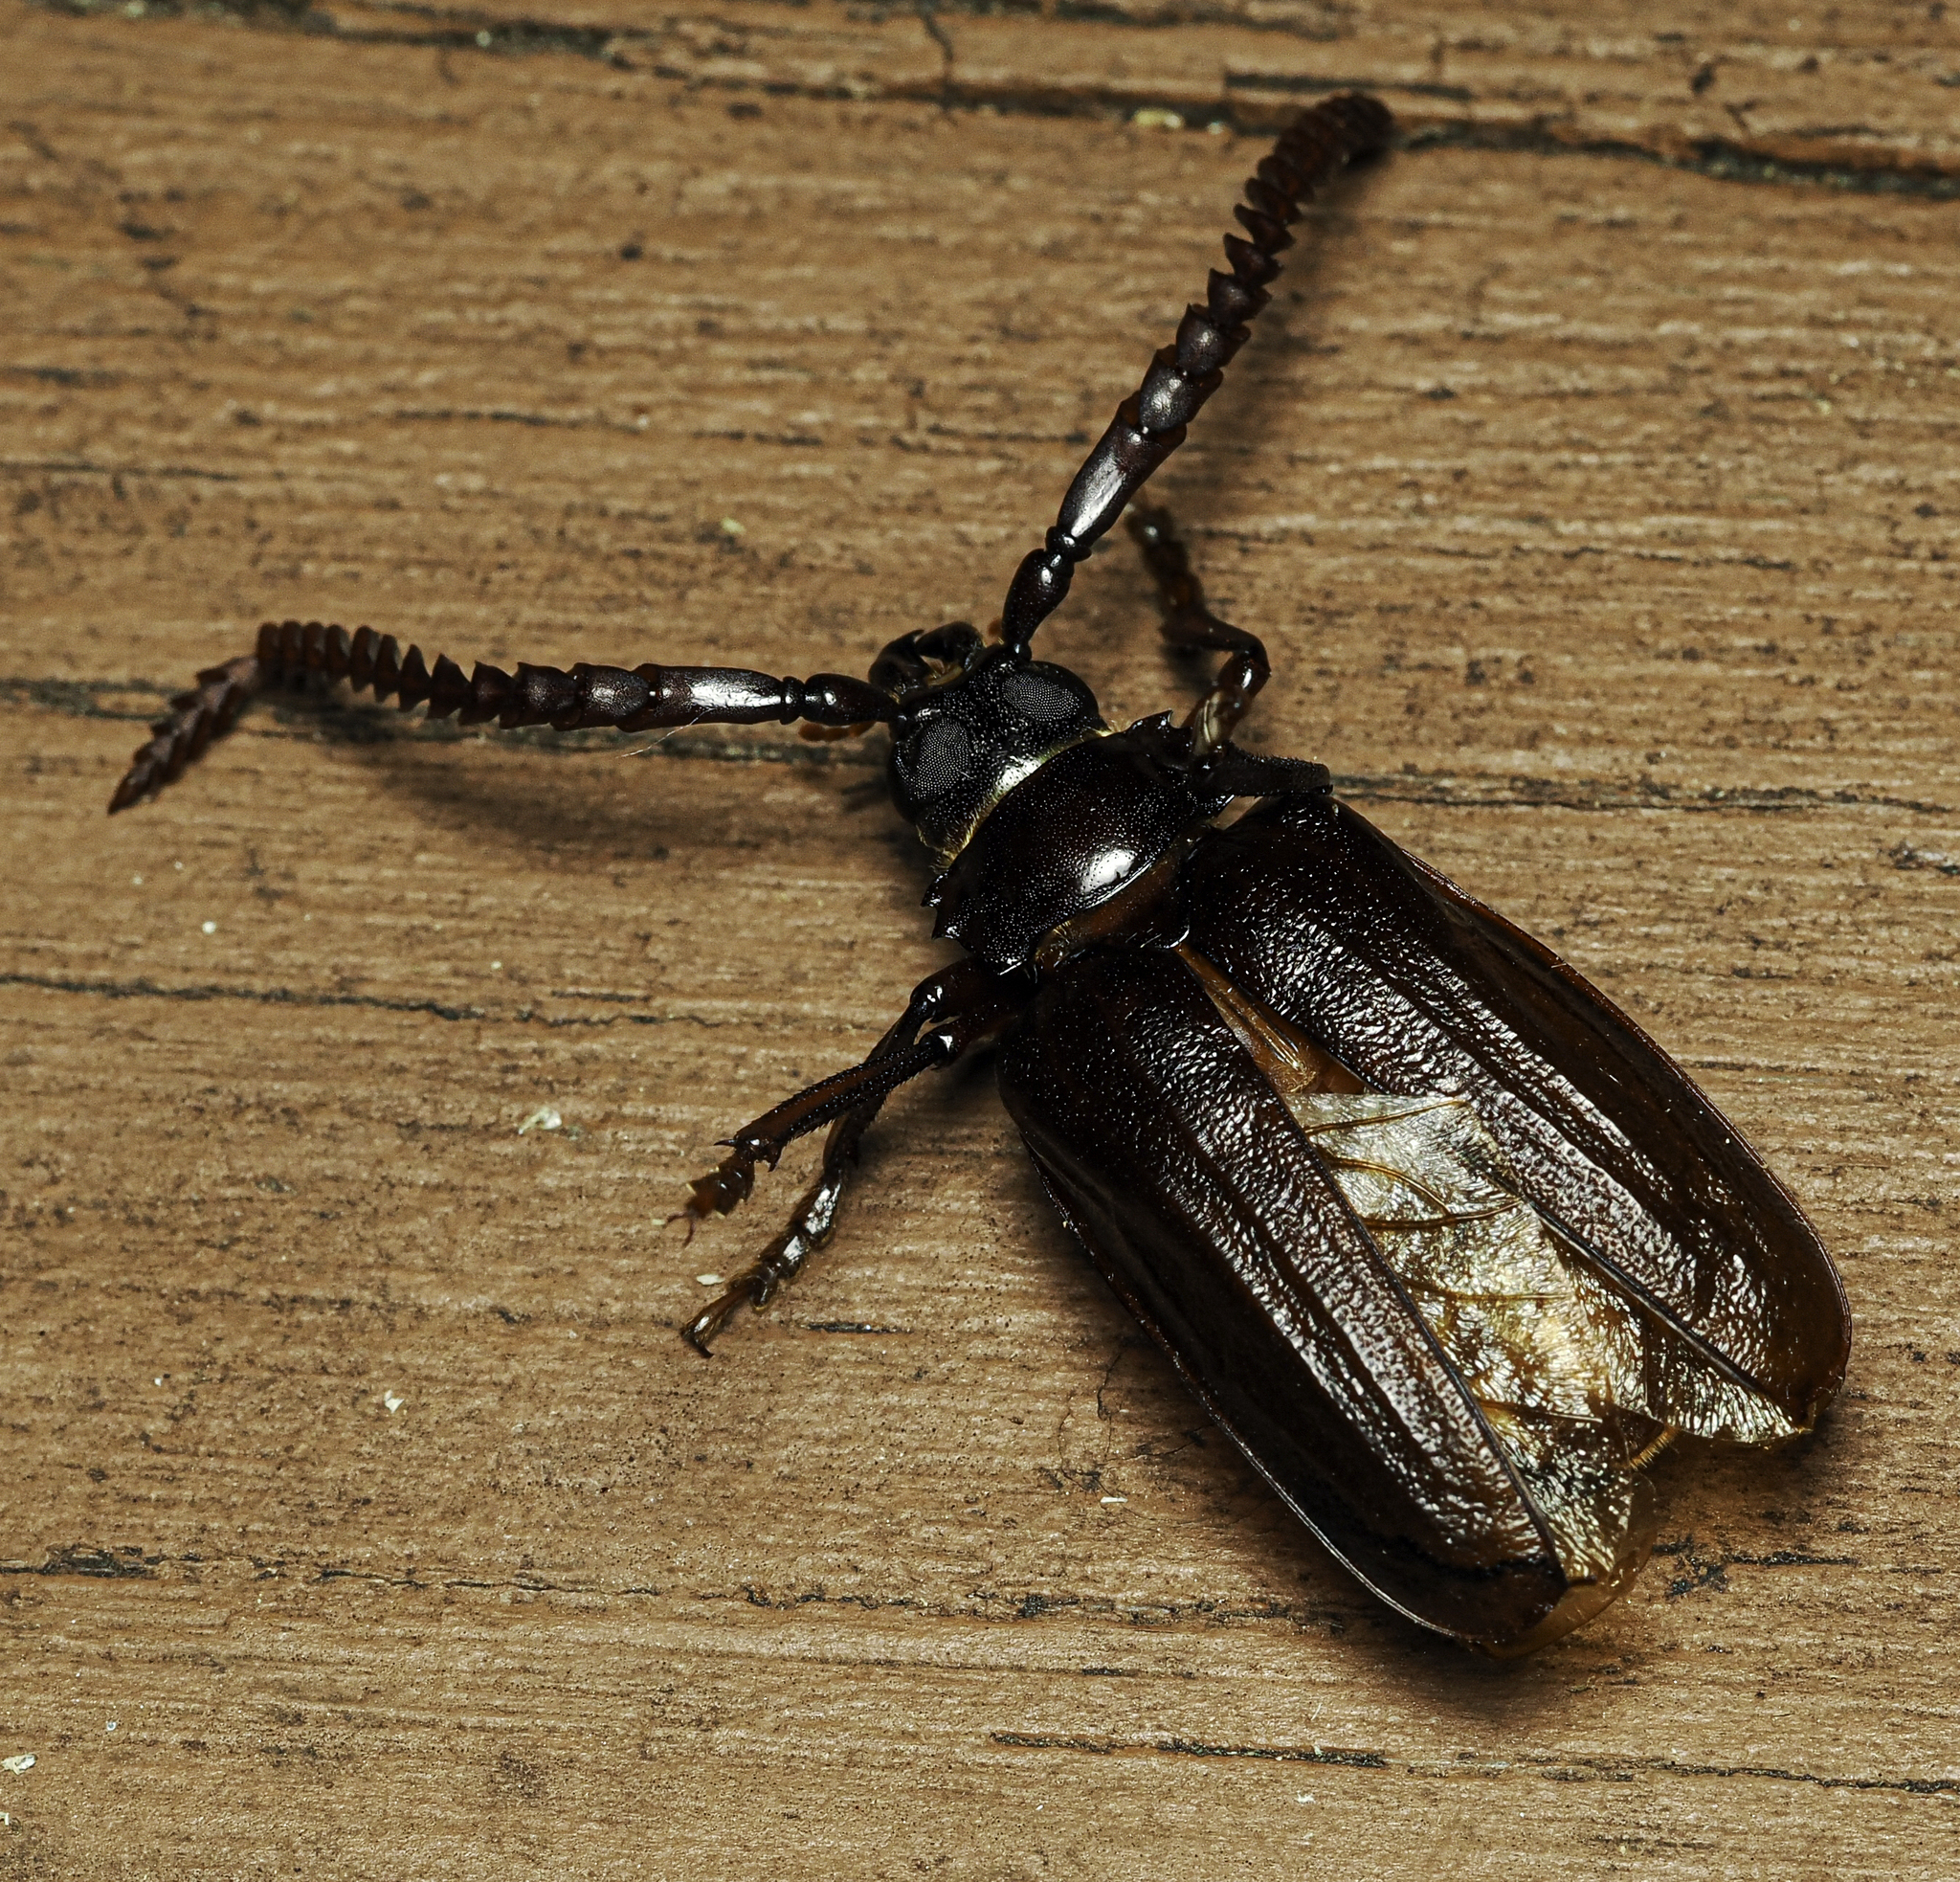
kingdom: Animalia
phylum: Arthropoda
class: Insecta
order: Coleoptera
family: Cerambycidae
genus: Prionus
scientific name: Prionus imbricornis
